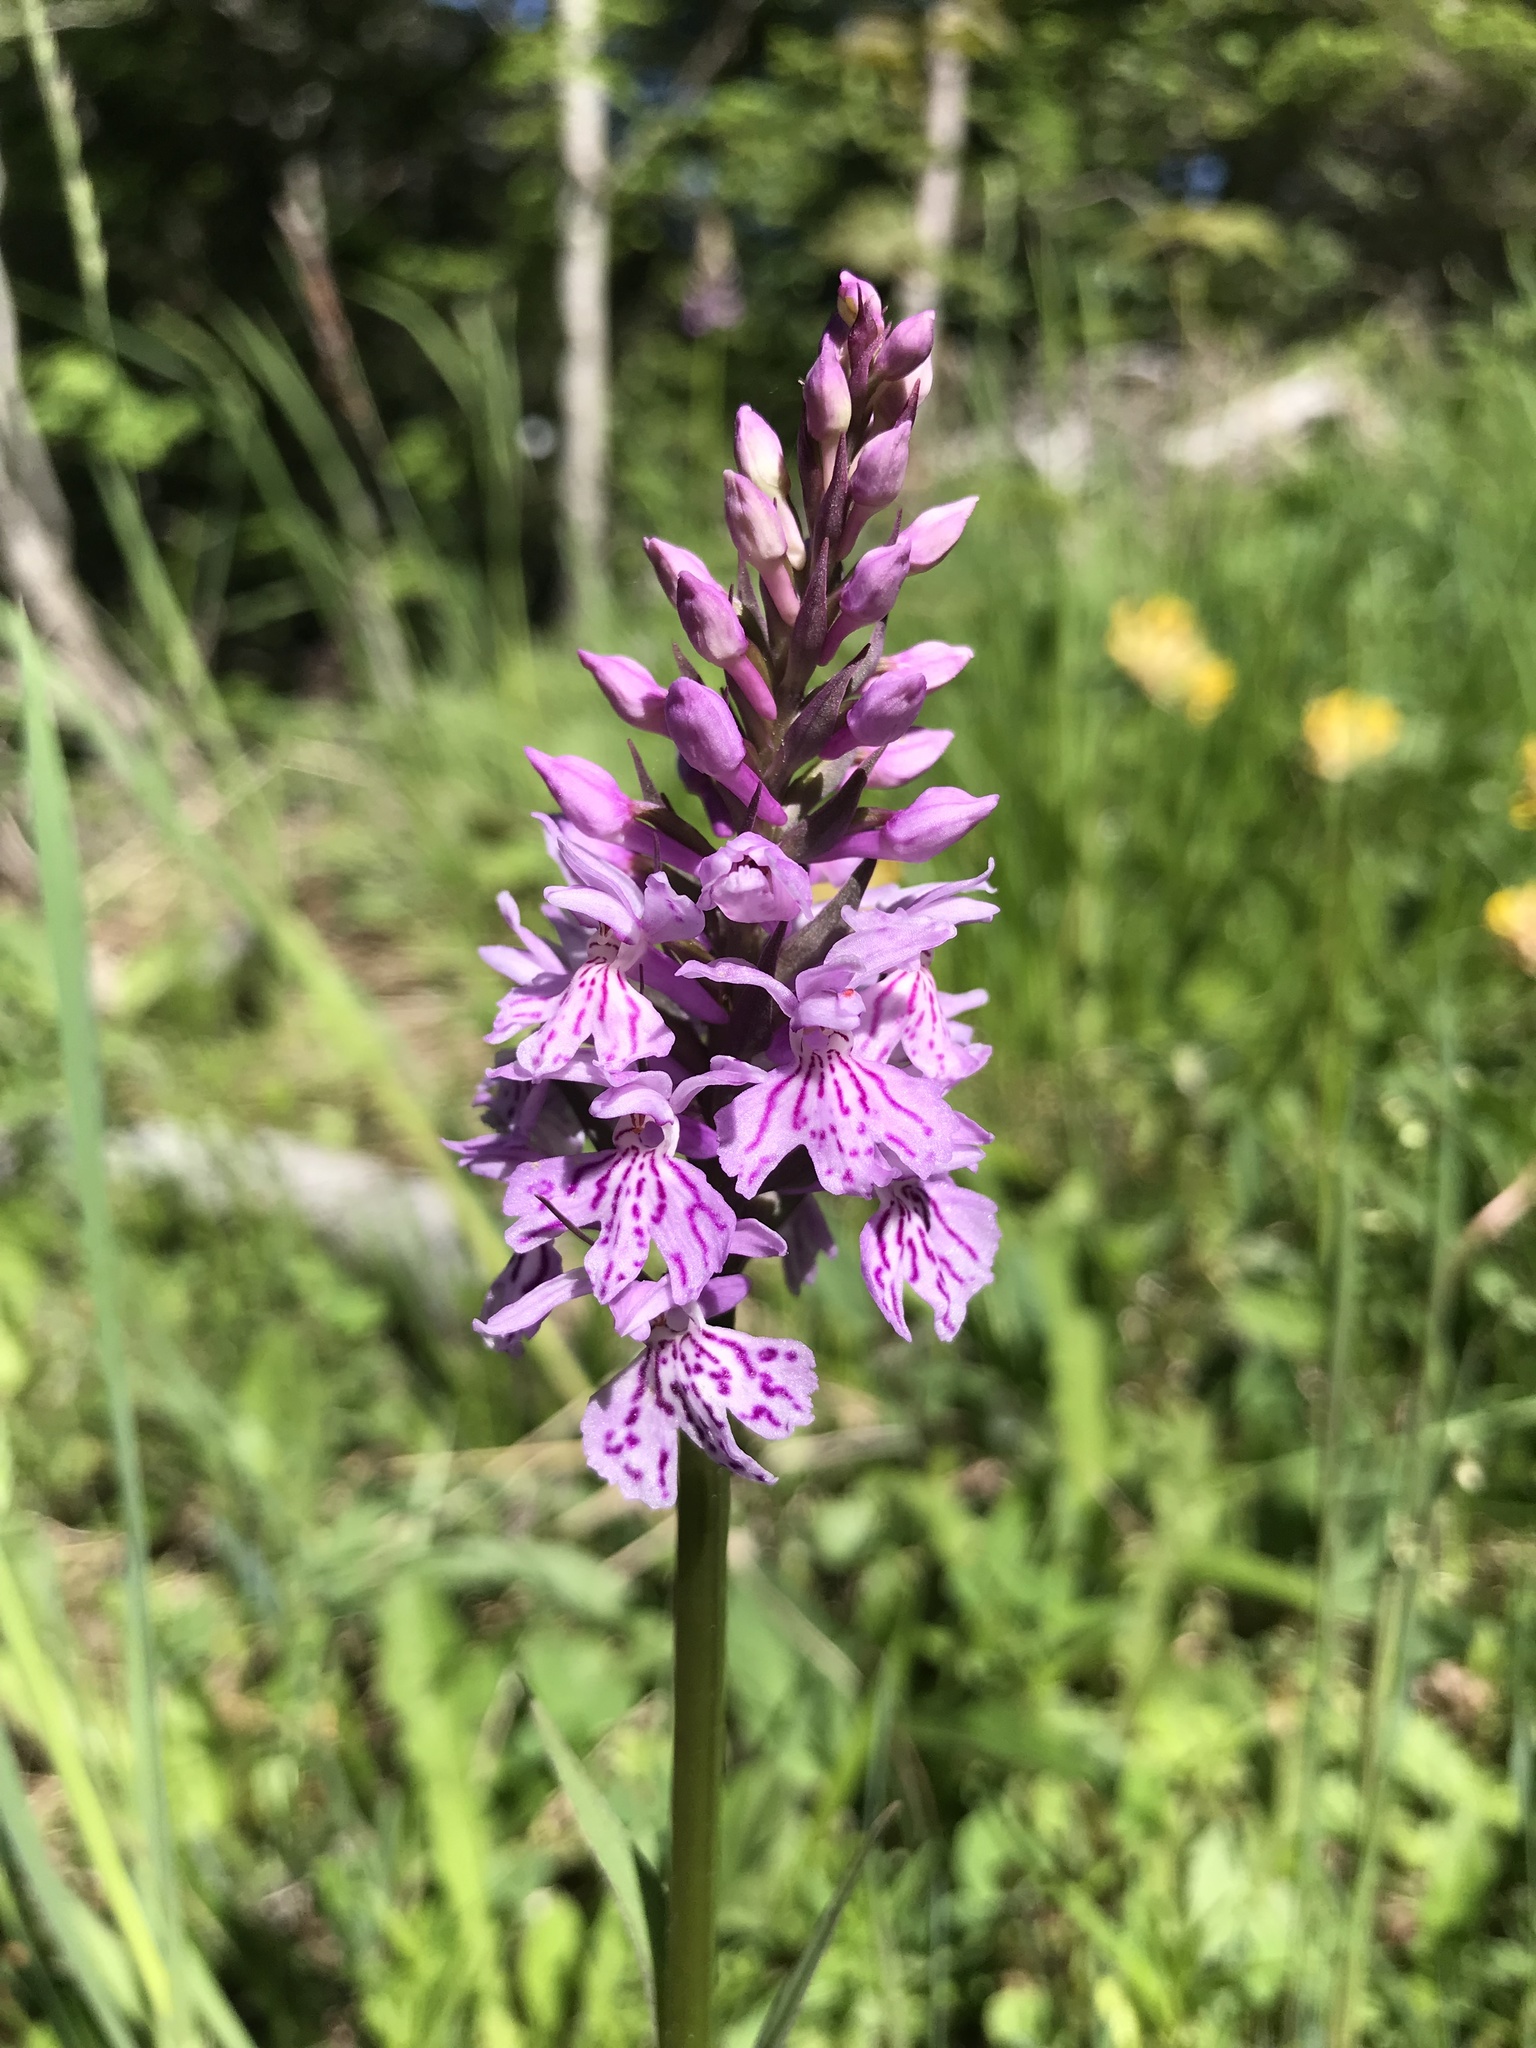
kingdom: Plantae
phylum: Tracheophyta
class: Liliopsida
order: Asparagales
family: Orchidaceae
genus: Dactylorhiza
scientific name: Dactylorhiza maculata
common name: Heath spotted-orchid
